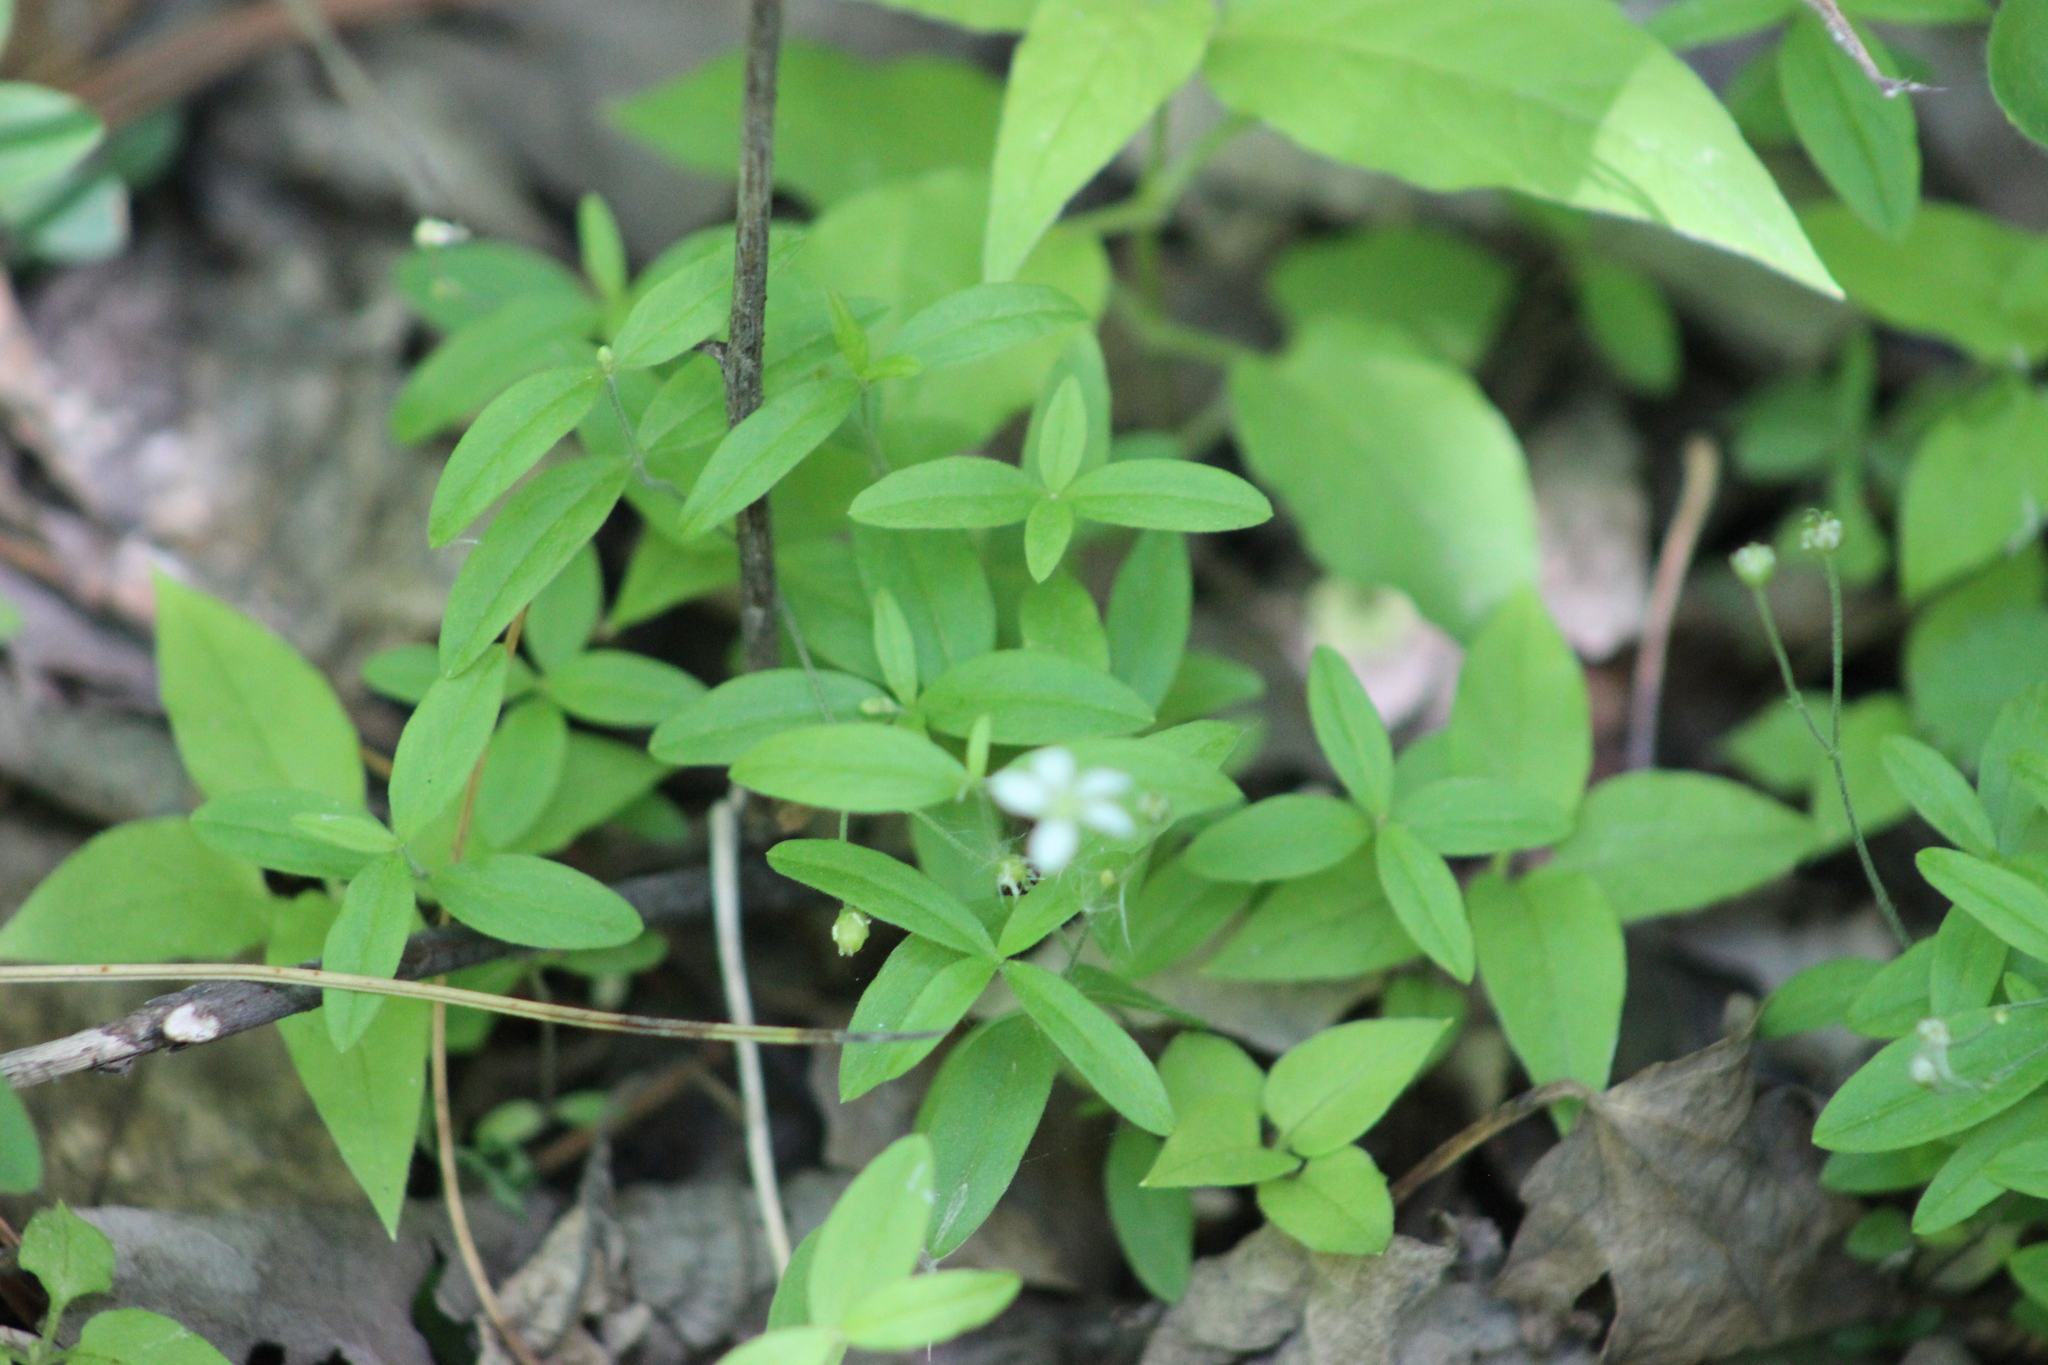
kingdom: Plantae
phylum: Tracheophyta
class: Magnoliopsida
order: Caryophyllales
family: Caryophyllaceae
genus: Moehringia
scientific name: Moehringia lateriflora
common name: Blunt-leaved sandwort
